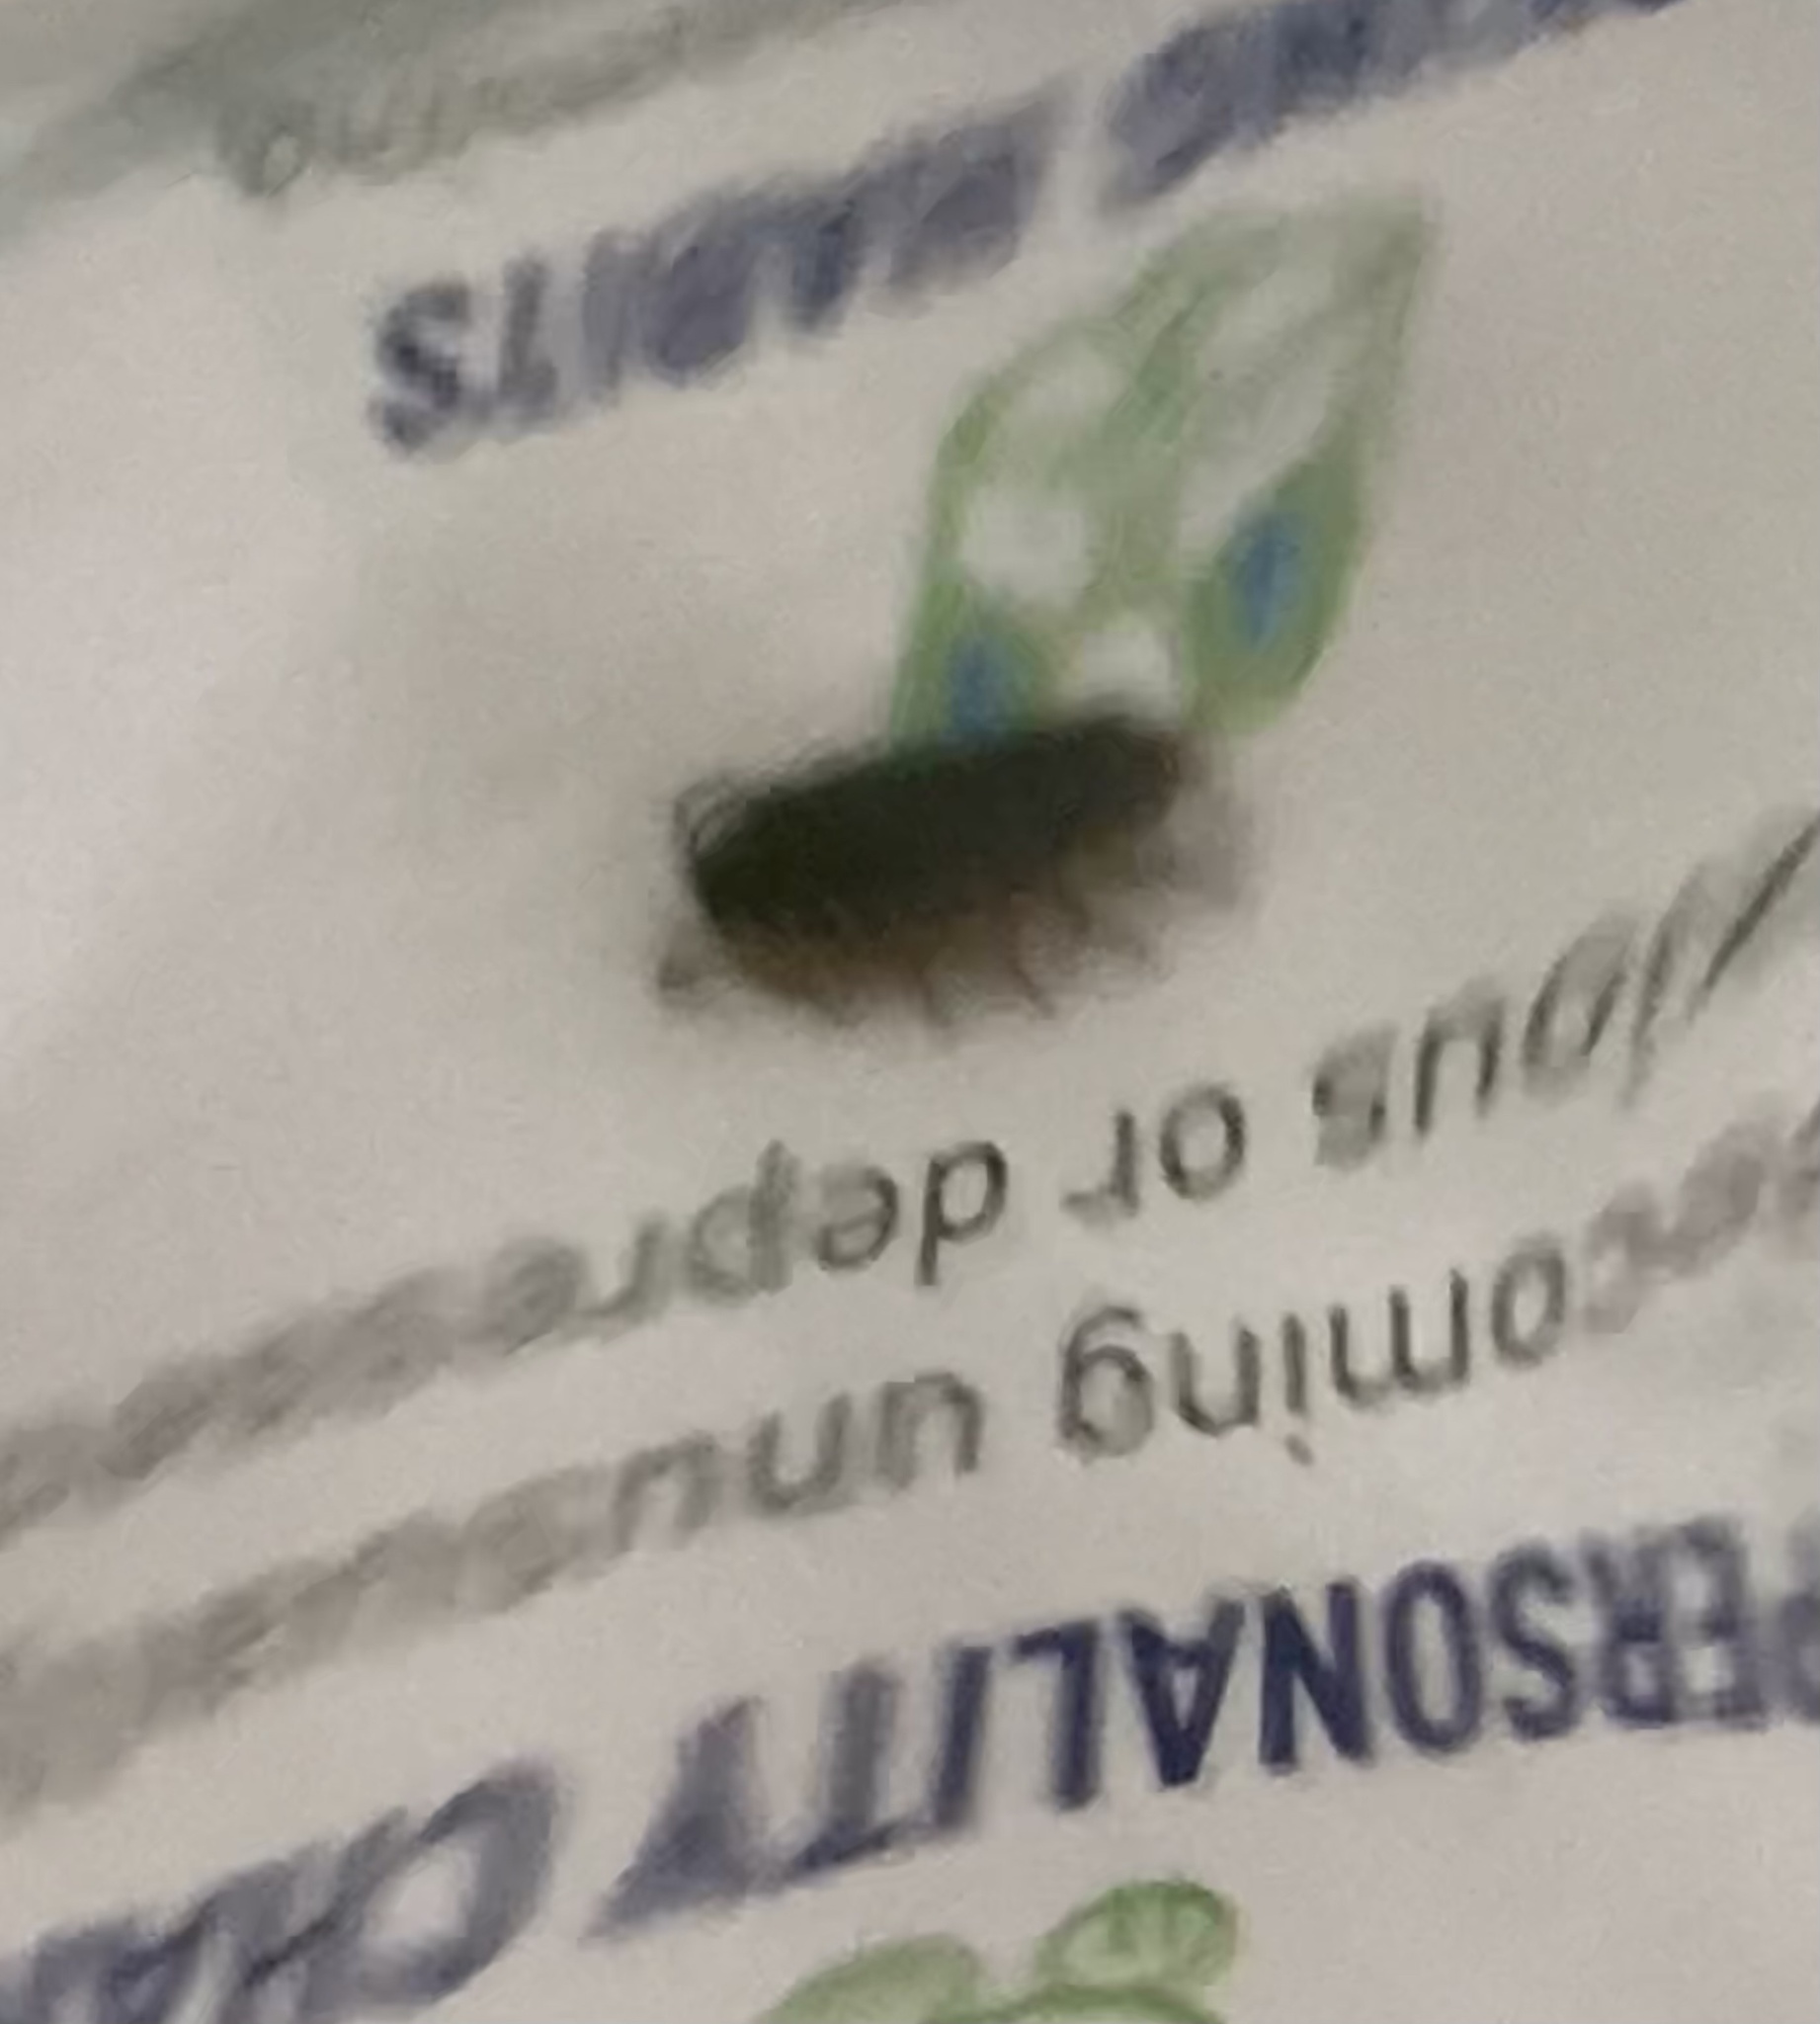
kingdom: Animalia
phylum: Arthropoda
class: Malacostraca
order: Isopoda
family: Philosciidae
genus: Philoscia
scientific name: Philoscia muscorum
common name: Common striped woodlouse
